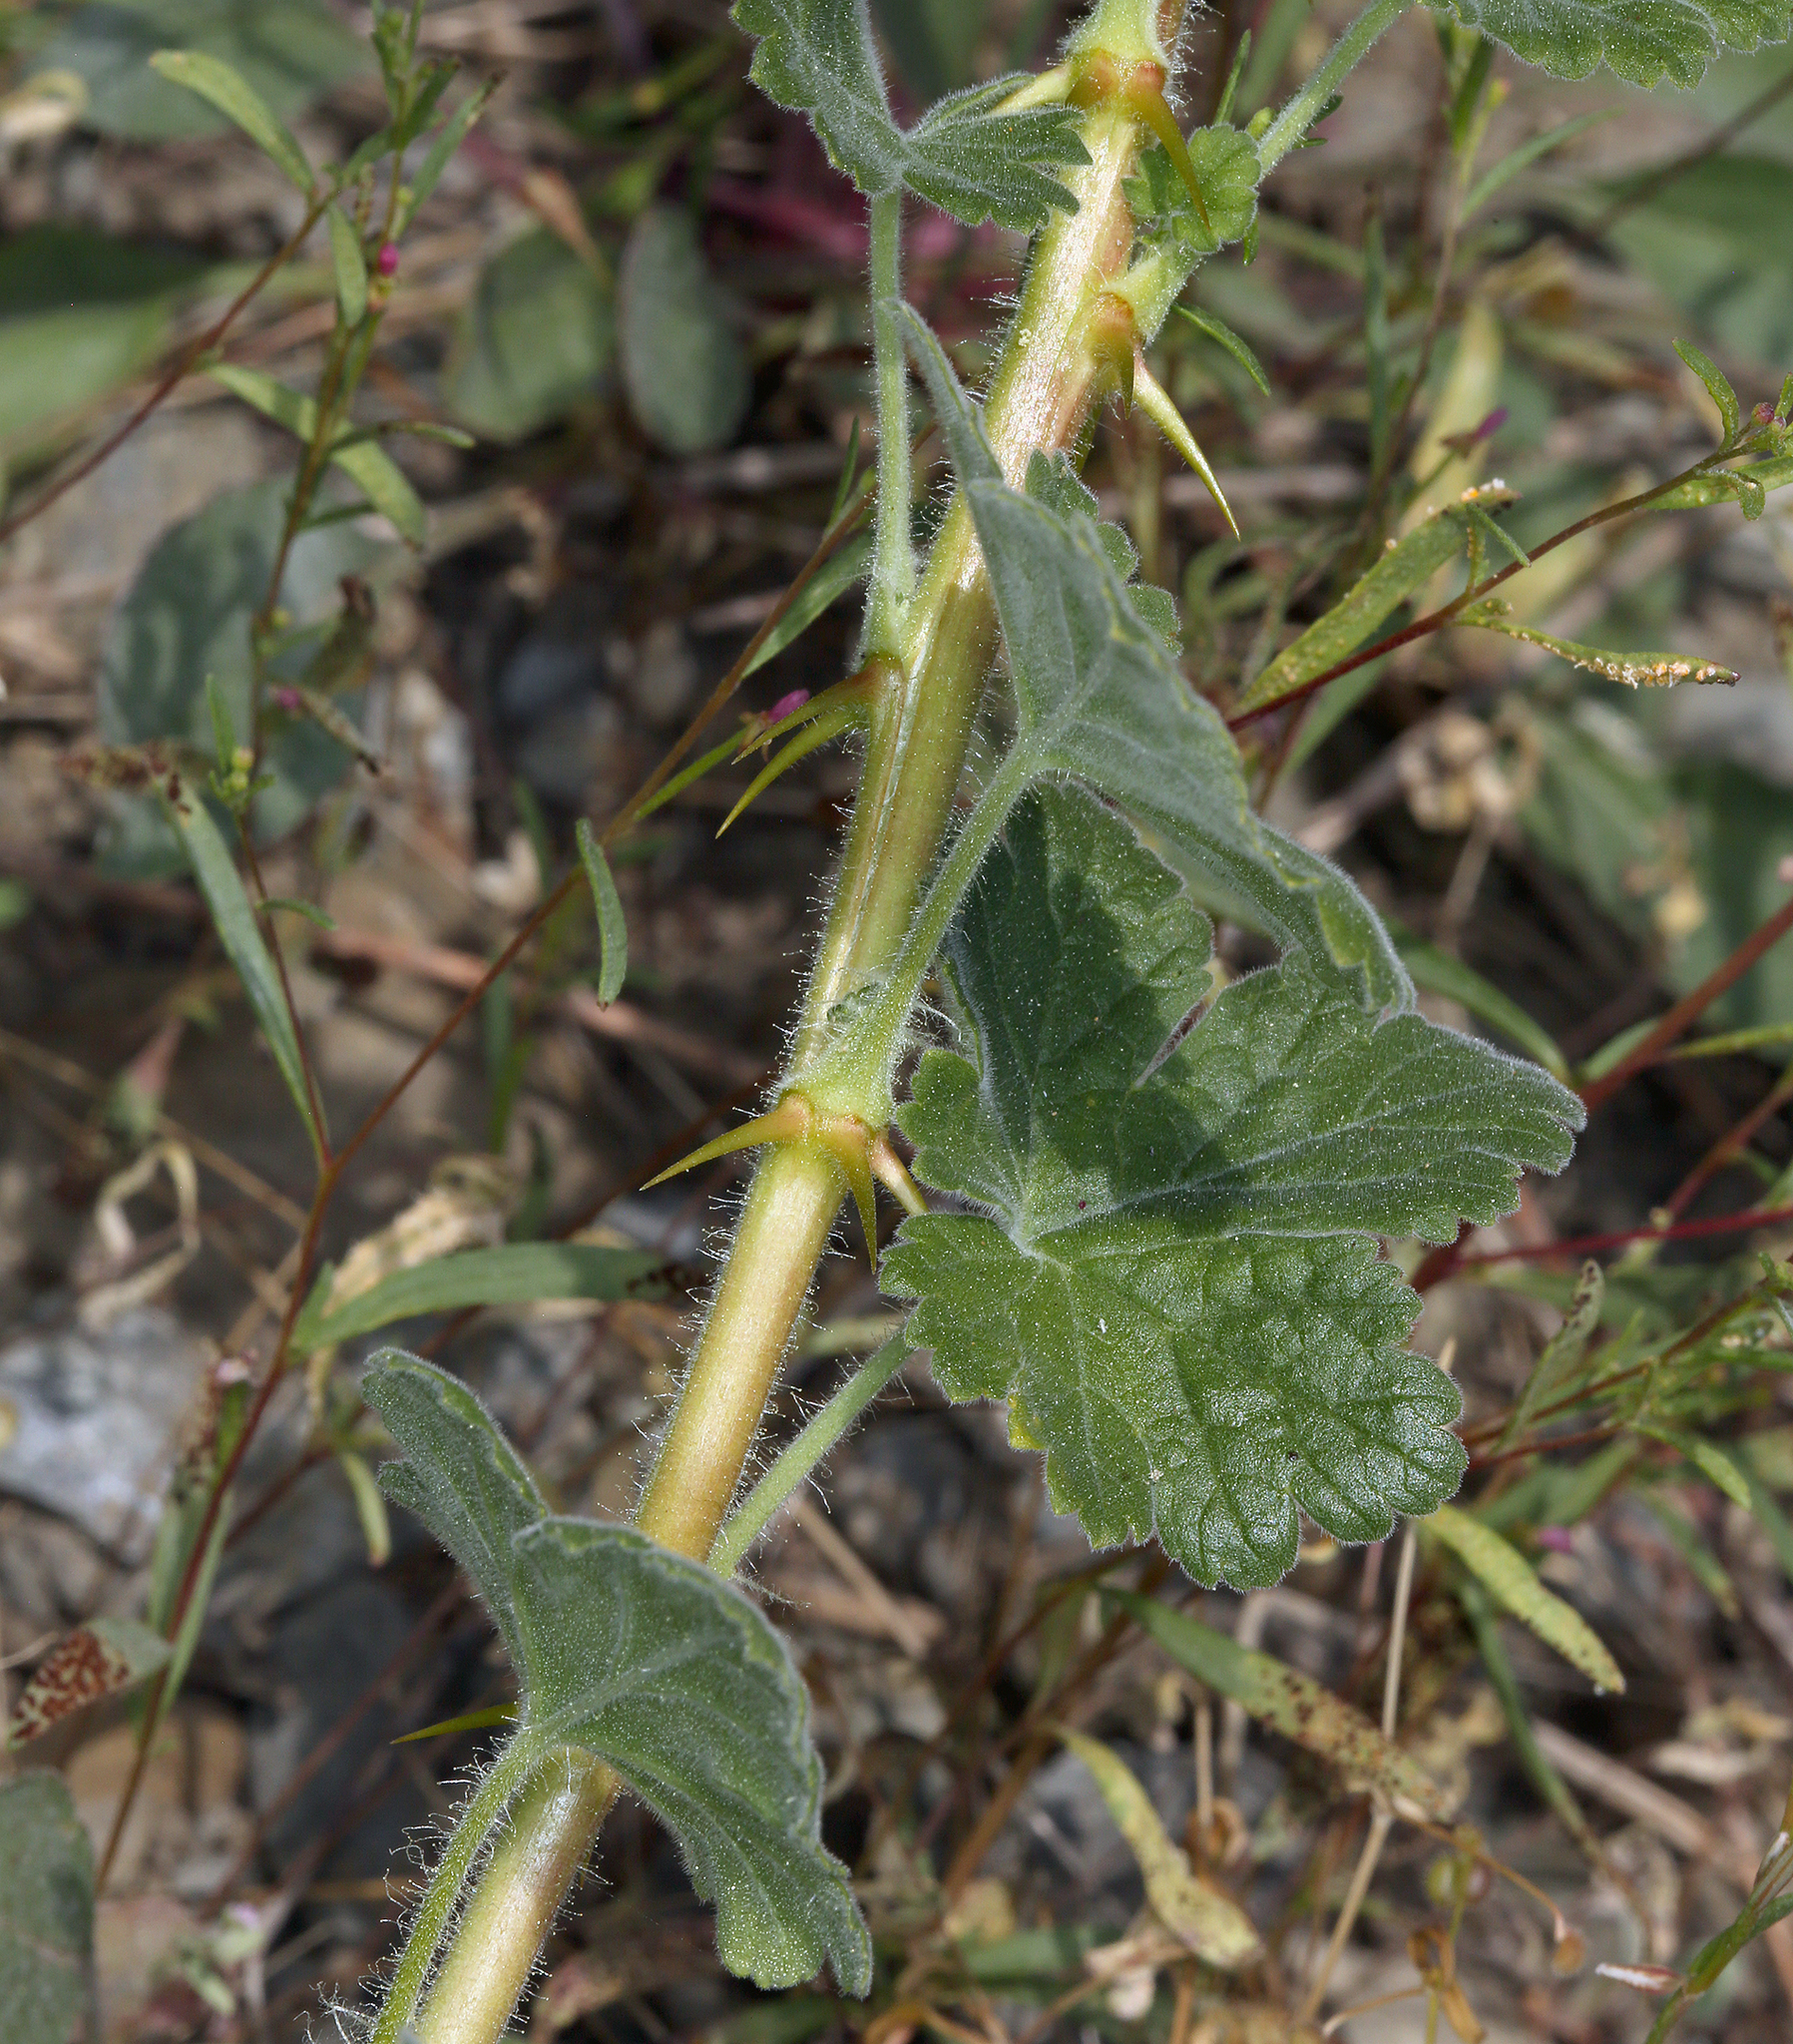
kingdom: Plantae
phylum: Tracheophyta
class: Magnoliopsida
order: Saxifragales
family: Grossulariaceae
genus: Ribes
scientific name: Ribes binominatum
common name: Trailing gooseberry
